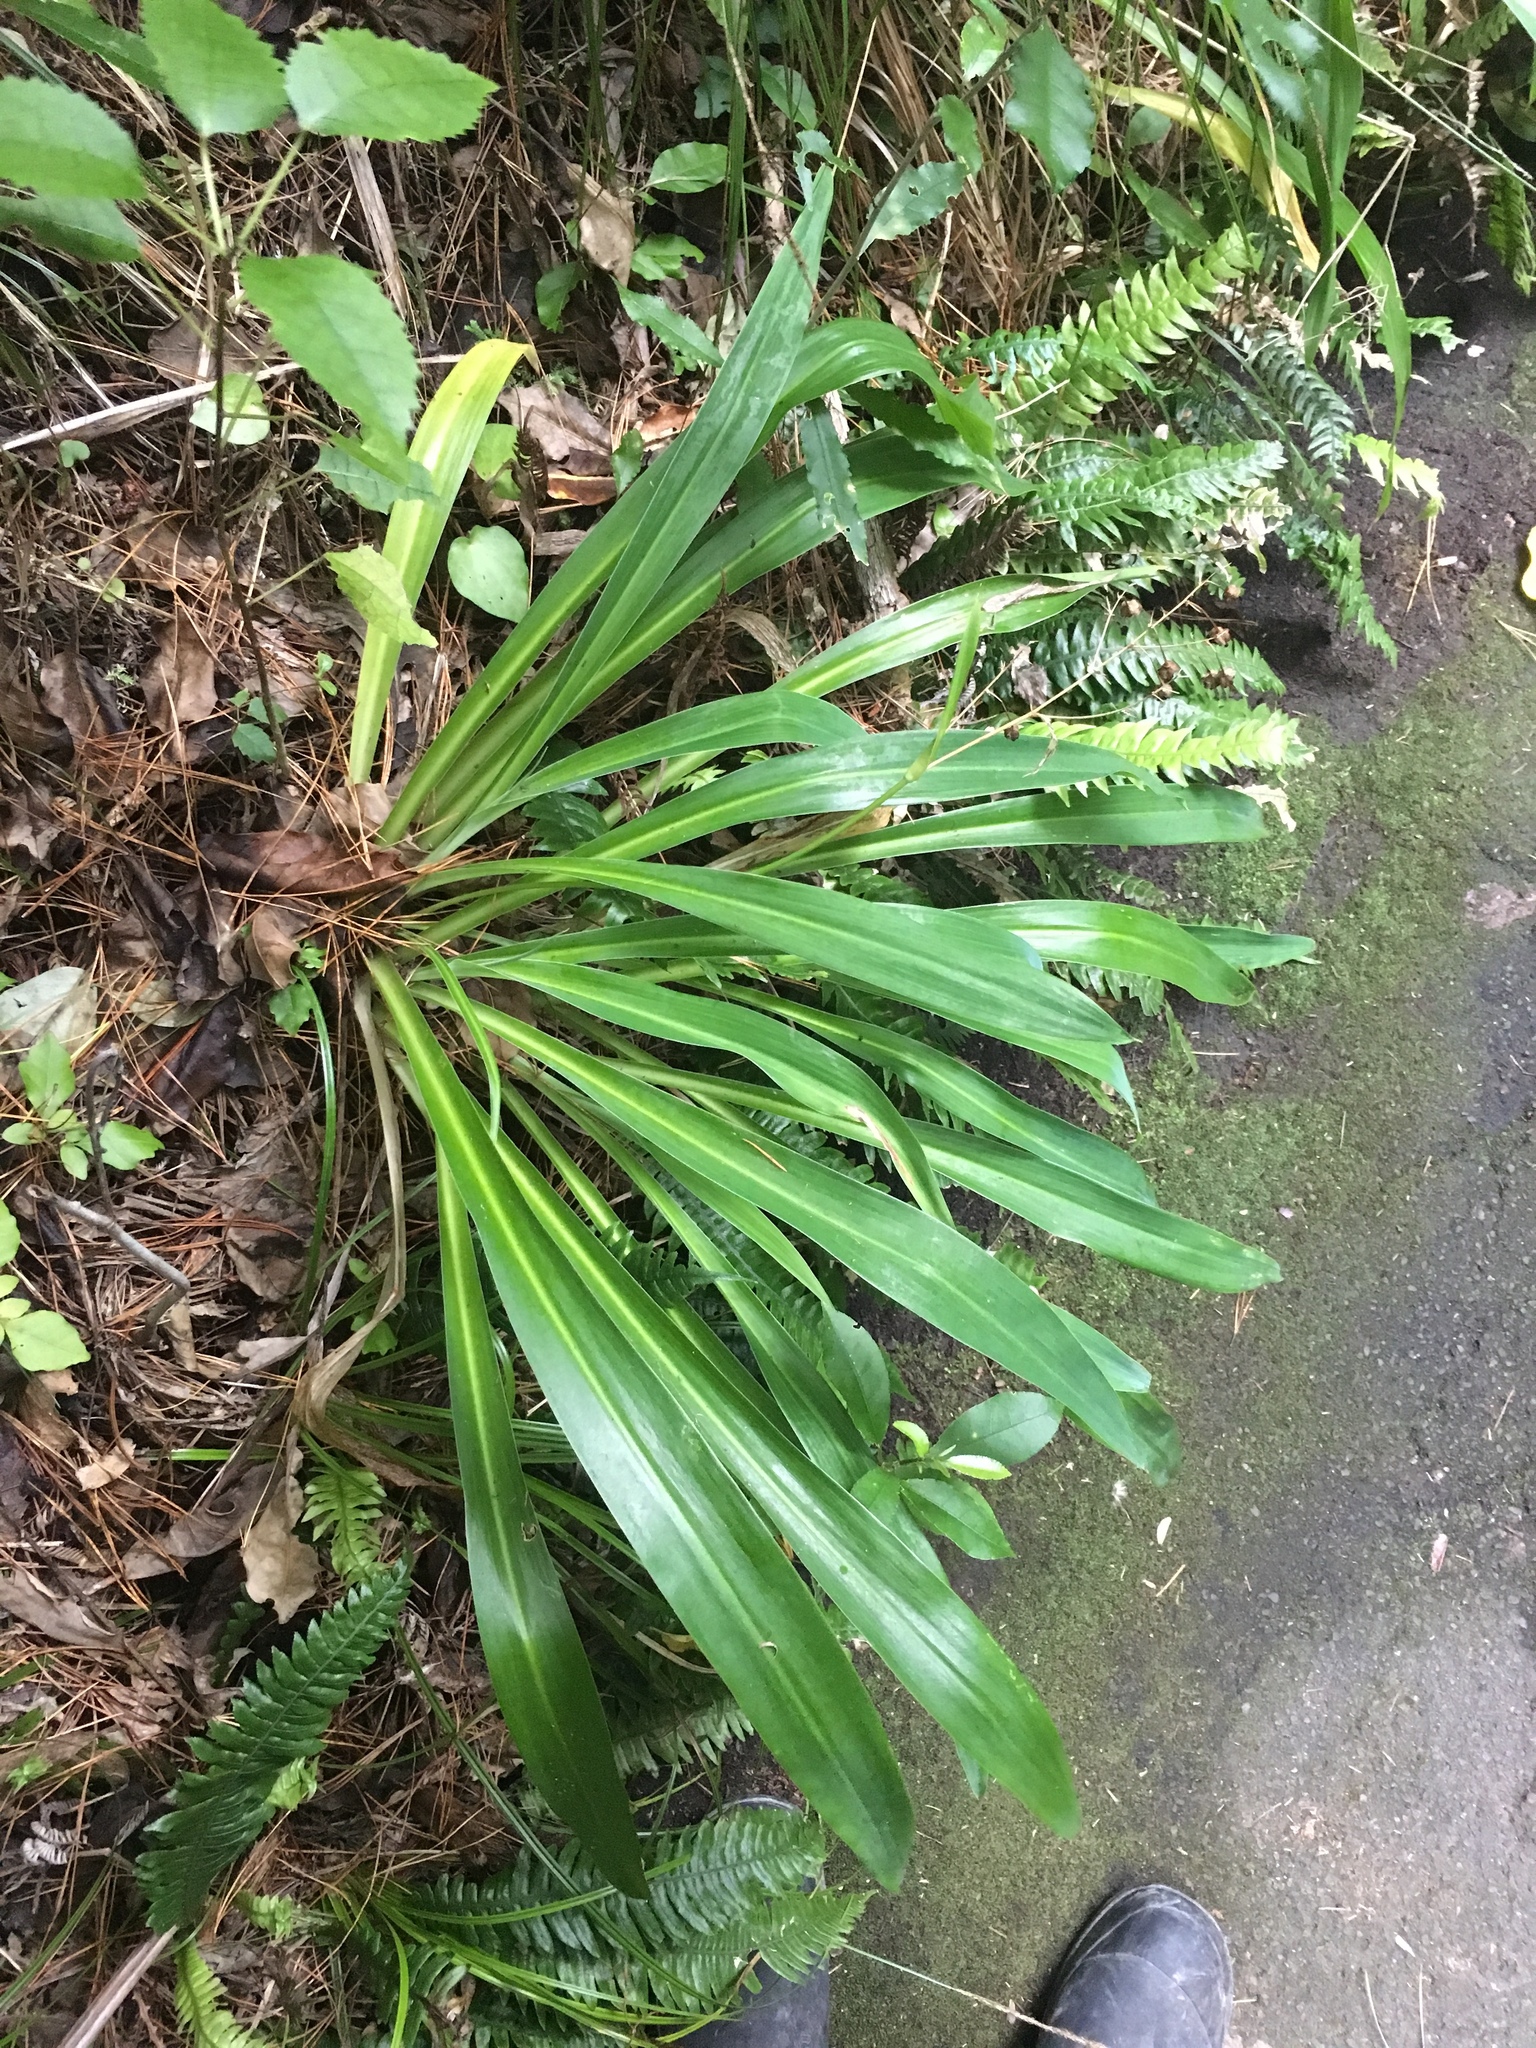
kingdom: Plantae
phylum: Tracheophyta
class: Liliopsida
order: Asparagales
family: Asparagaceae
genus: Arthropodium
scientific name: Arthropodium cirratum
